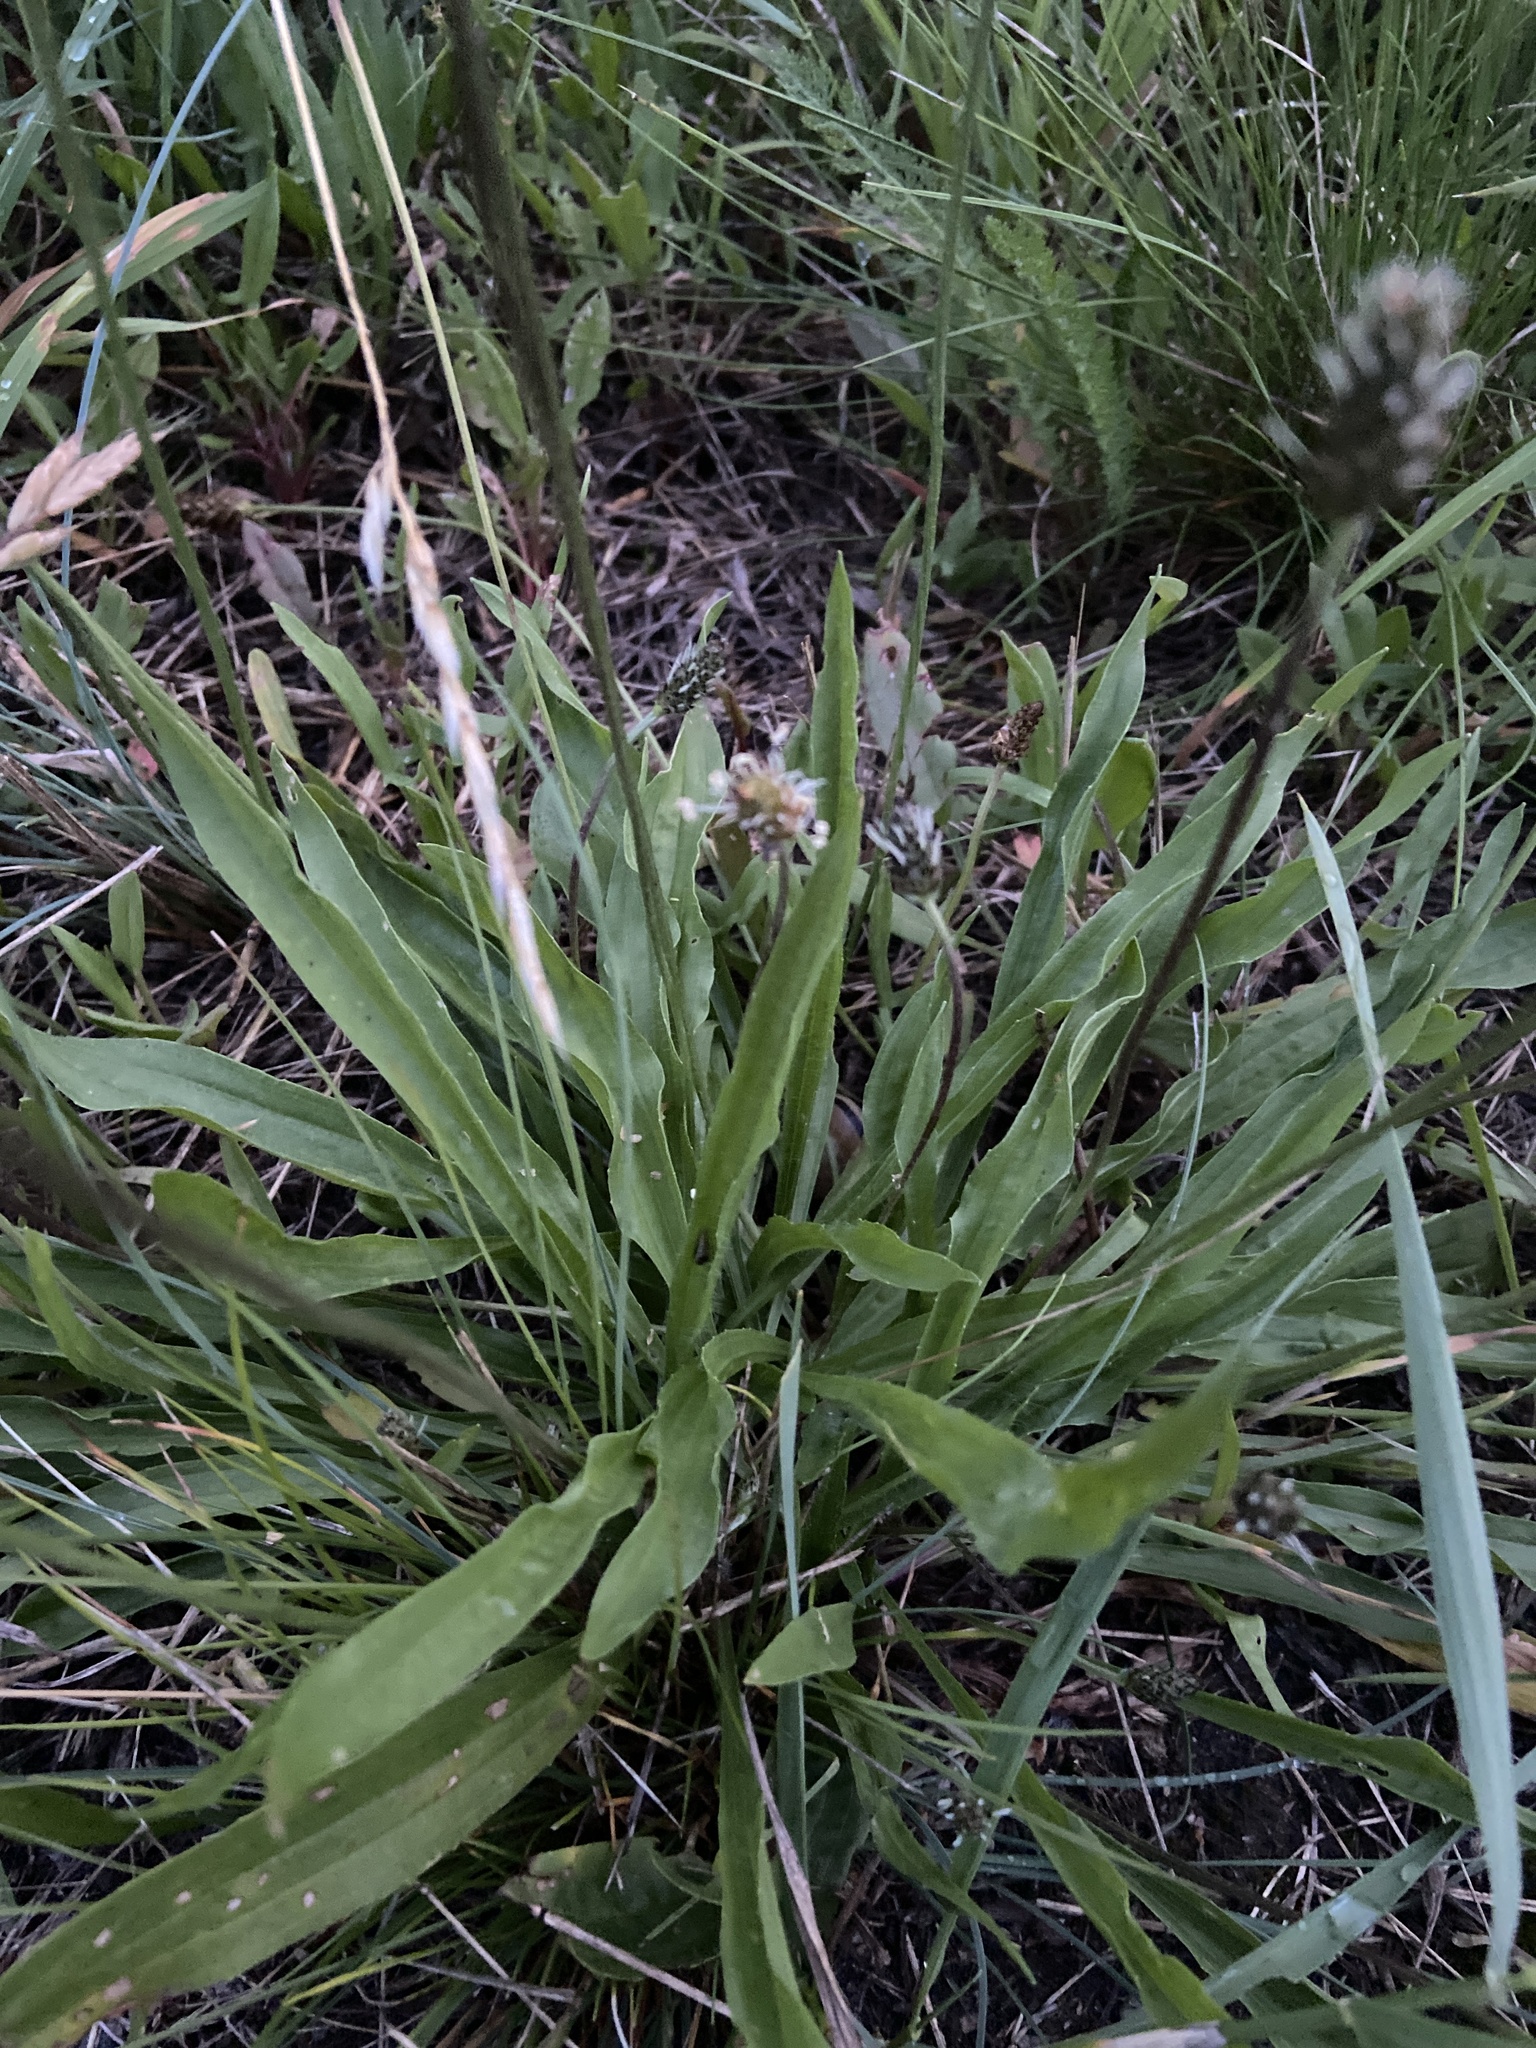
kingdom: Plantae
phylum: Tracheophyta
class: Magnoliopsida
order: Lamiales
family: Plantaginaceae
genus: Plantago
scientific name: Plantago lanceolata
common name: Ribwort plantain
